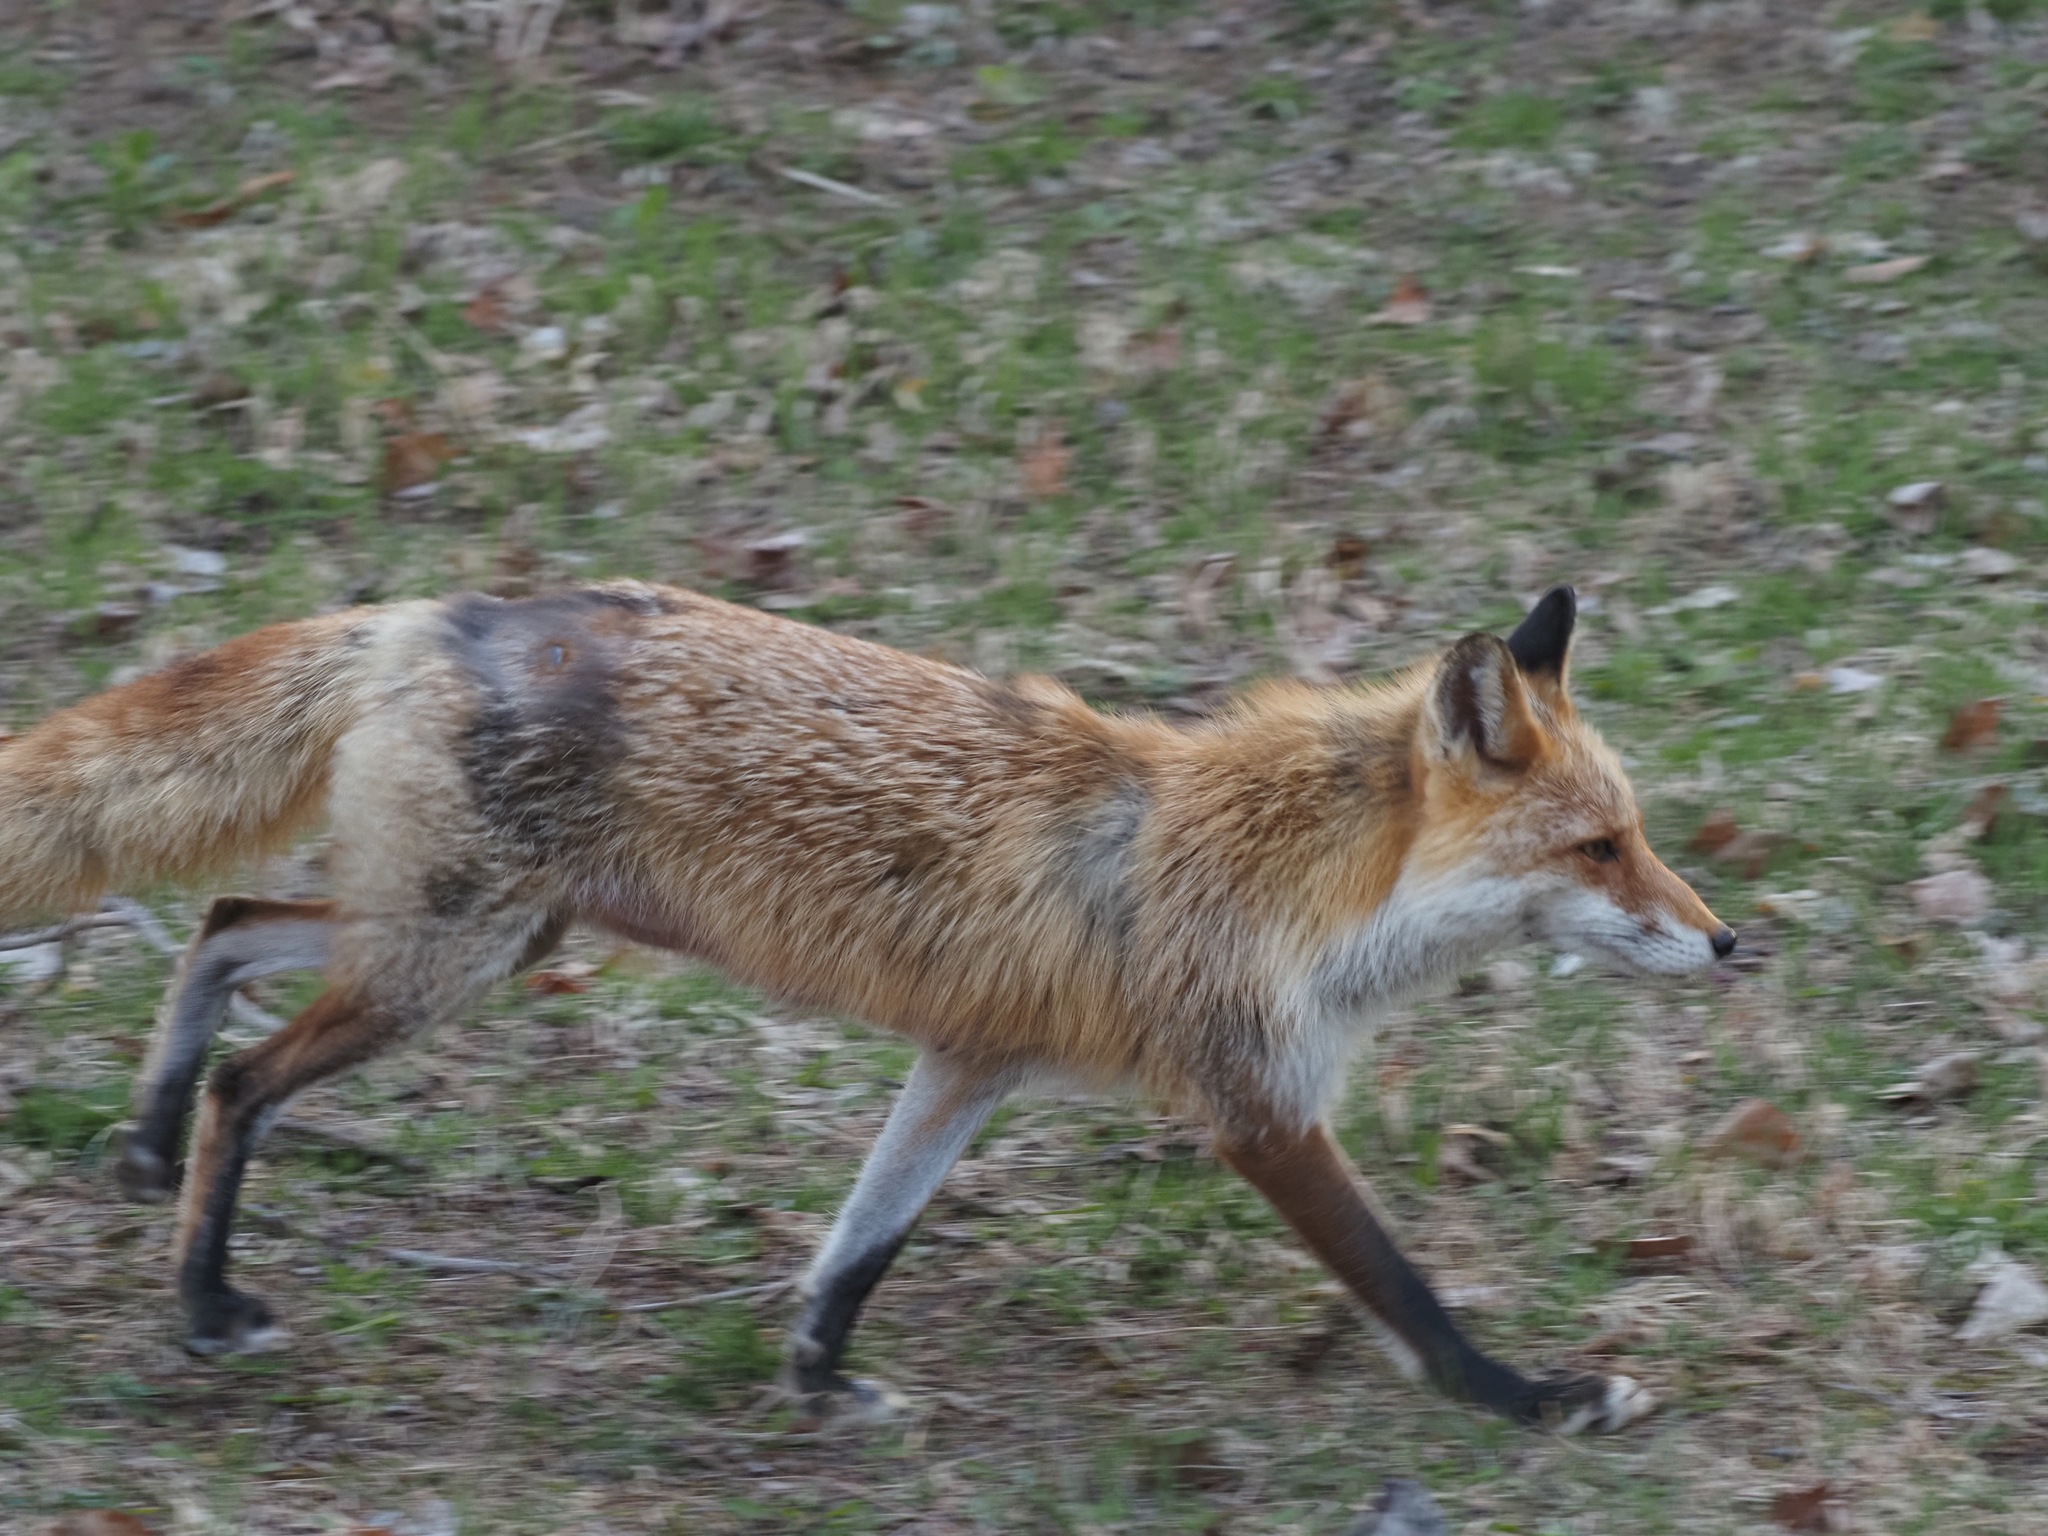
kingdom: Animalia
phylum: Chordata
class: Mammalia
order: Carnivora
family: Canidae
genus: Vulpes
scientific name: Vulpes vulpes
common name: Red fox
